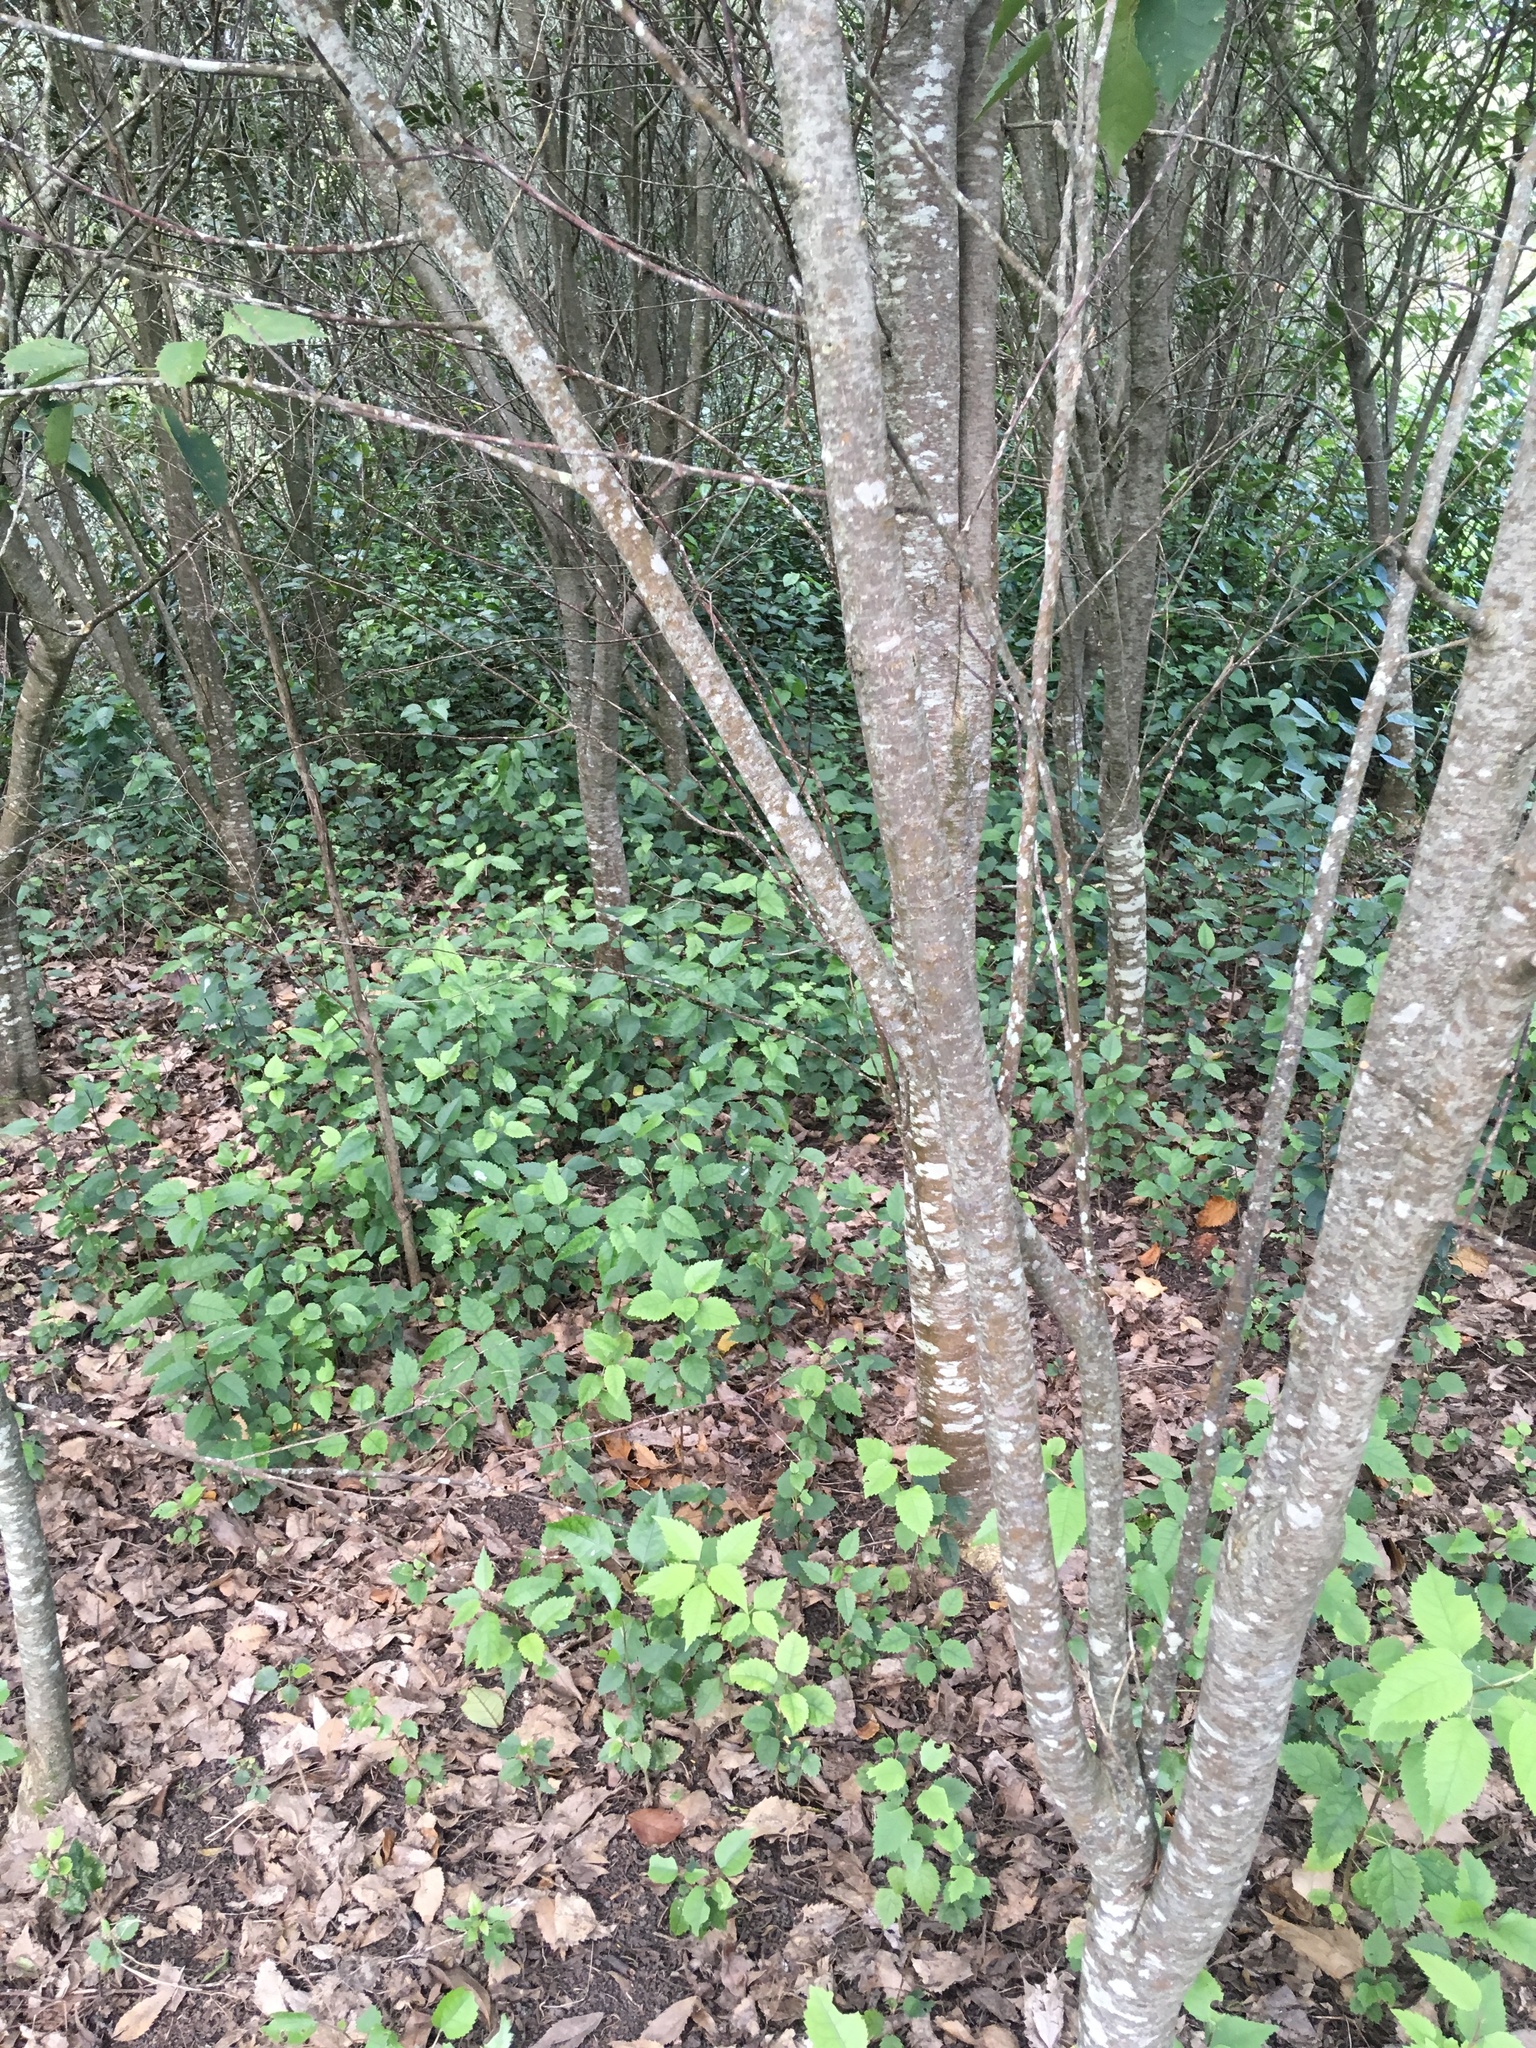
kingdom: Plantae
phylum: Tracheophyta
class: Magnoliopsida
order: Malvales
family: Malvaceae
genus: Hoheria
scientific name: Hoheria populnea
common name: Lacebark
